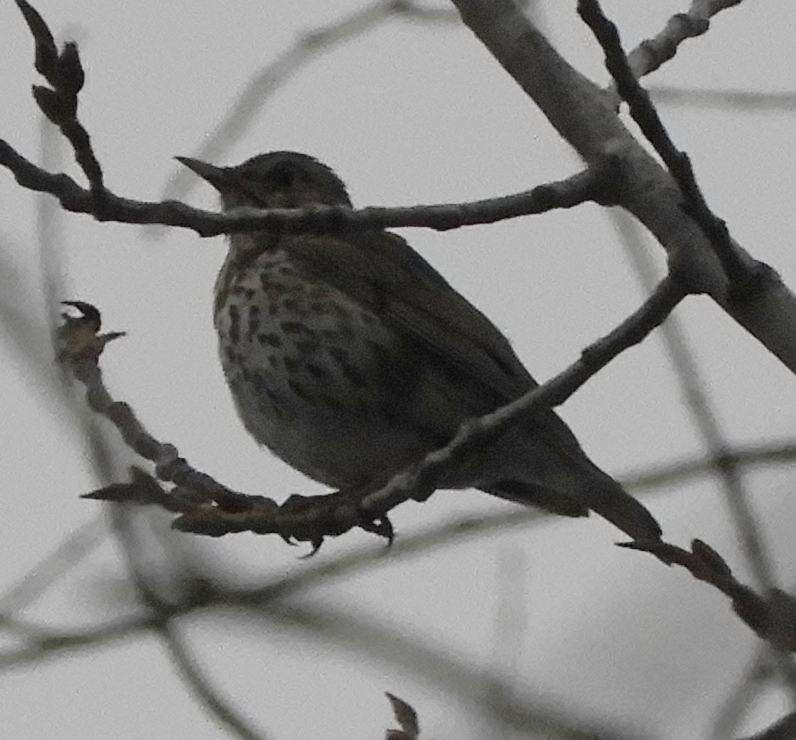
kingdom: Animalia
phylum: Chordata
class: Aves
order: Passeriformes
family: Turdidae
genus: Turdus
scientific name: Turdus philomelos
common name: Song thrush
